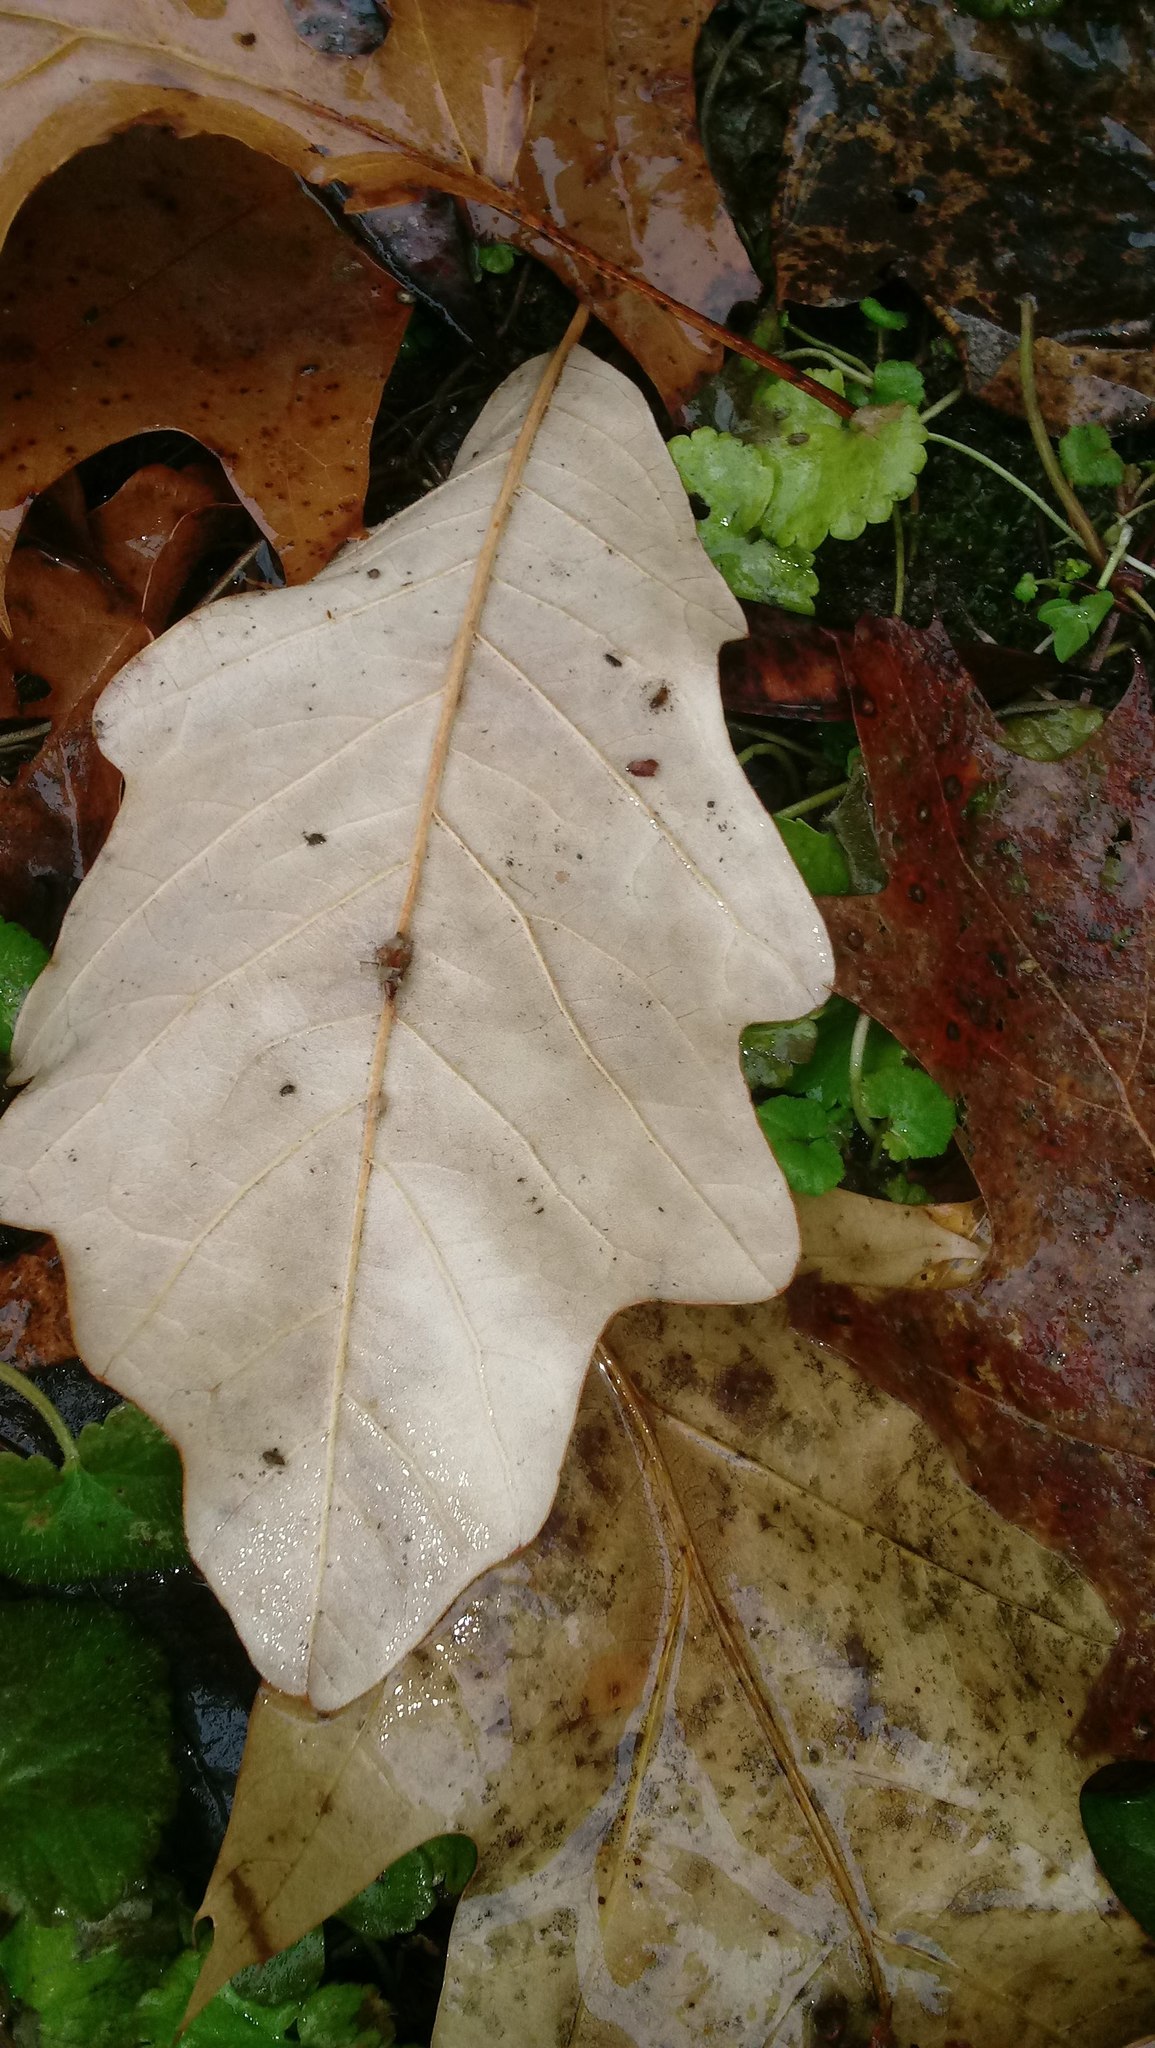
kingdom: Animalia
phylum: Arthropoda
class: Insecta
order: Hymenoptera
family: Cynipidae
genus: Andricus
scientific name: Andricus Druon ignotum
